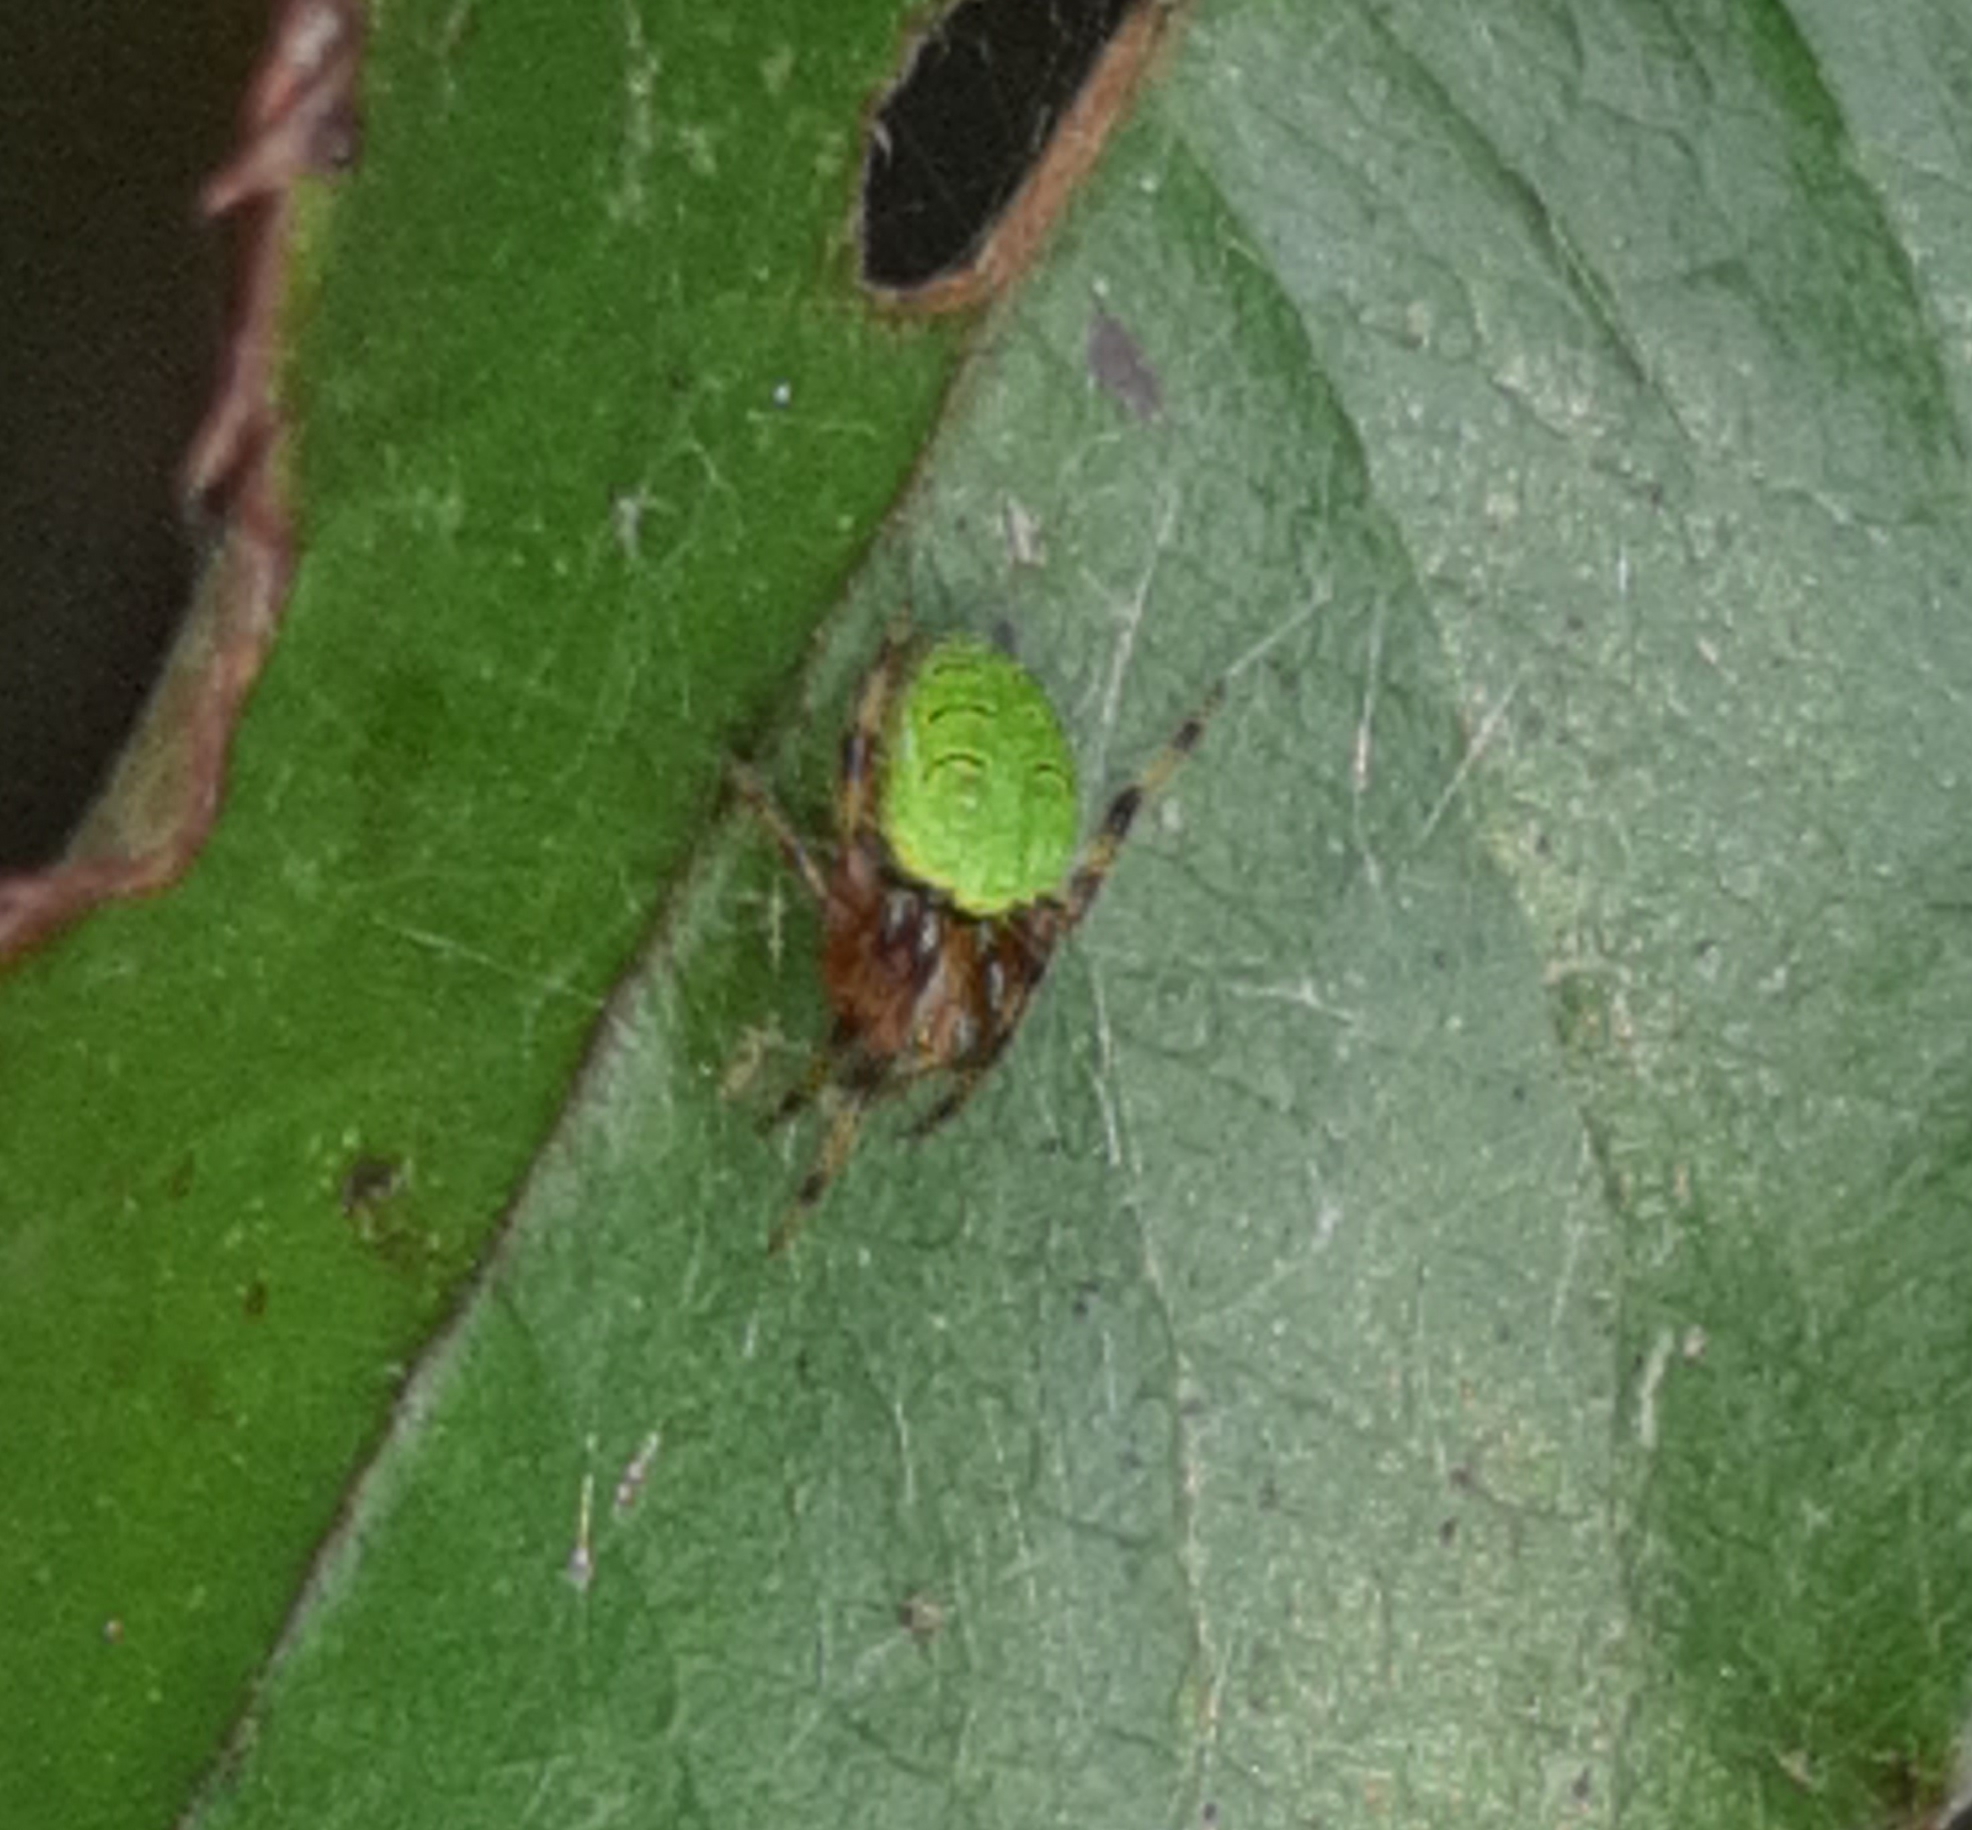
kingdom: Animalia
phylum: Arthropoda
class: Arachnida
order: Araneae
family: Araneidae
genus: Eriophora
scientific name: Eriophora ravilla
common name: Orb weavers
